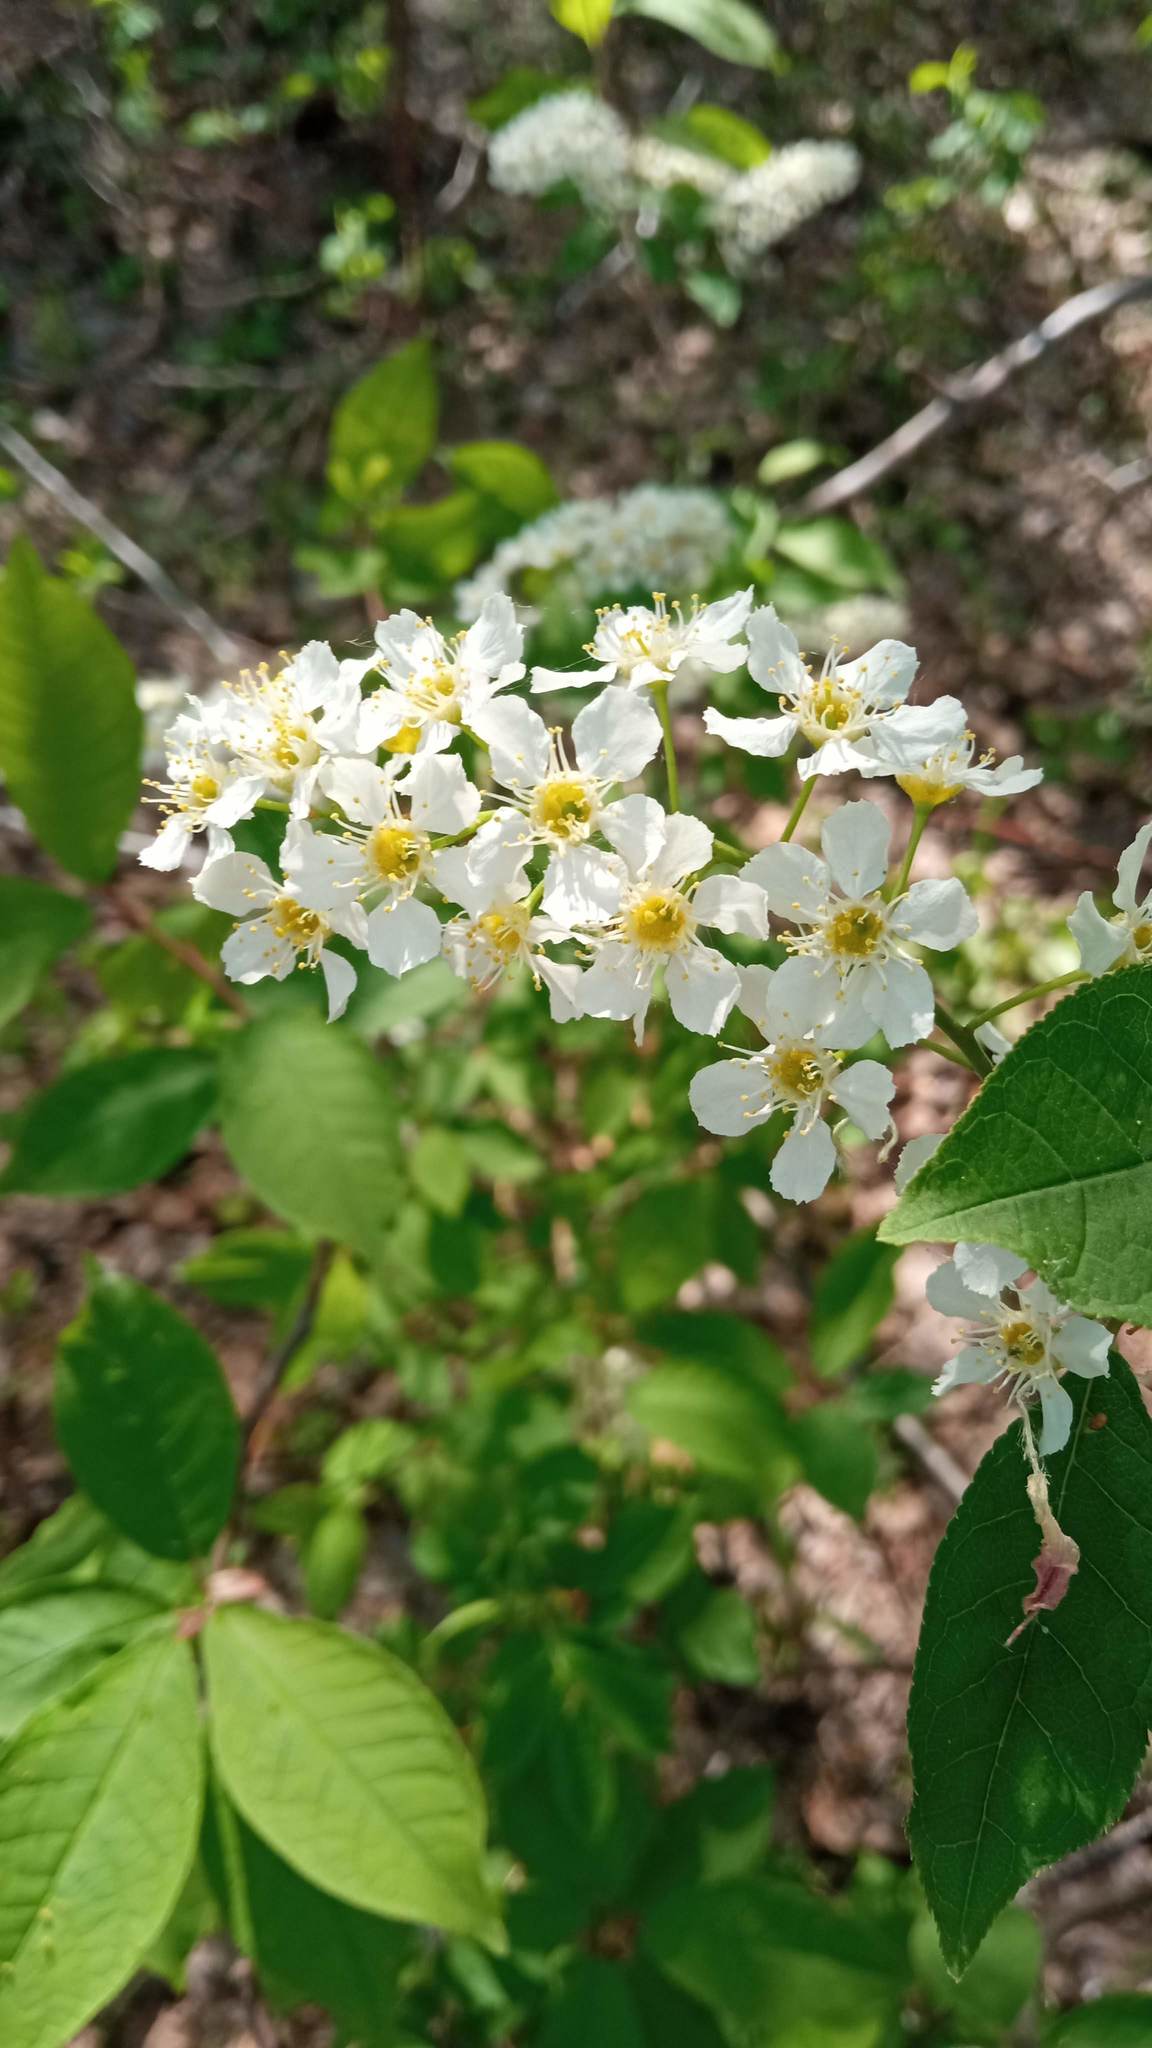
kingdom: Plantae
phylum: Tracheophyta
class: Magnoliopsida
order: Rosales
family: Rosaceae
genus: Prunus
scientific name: Prunus padus
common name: Bird cherry
